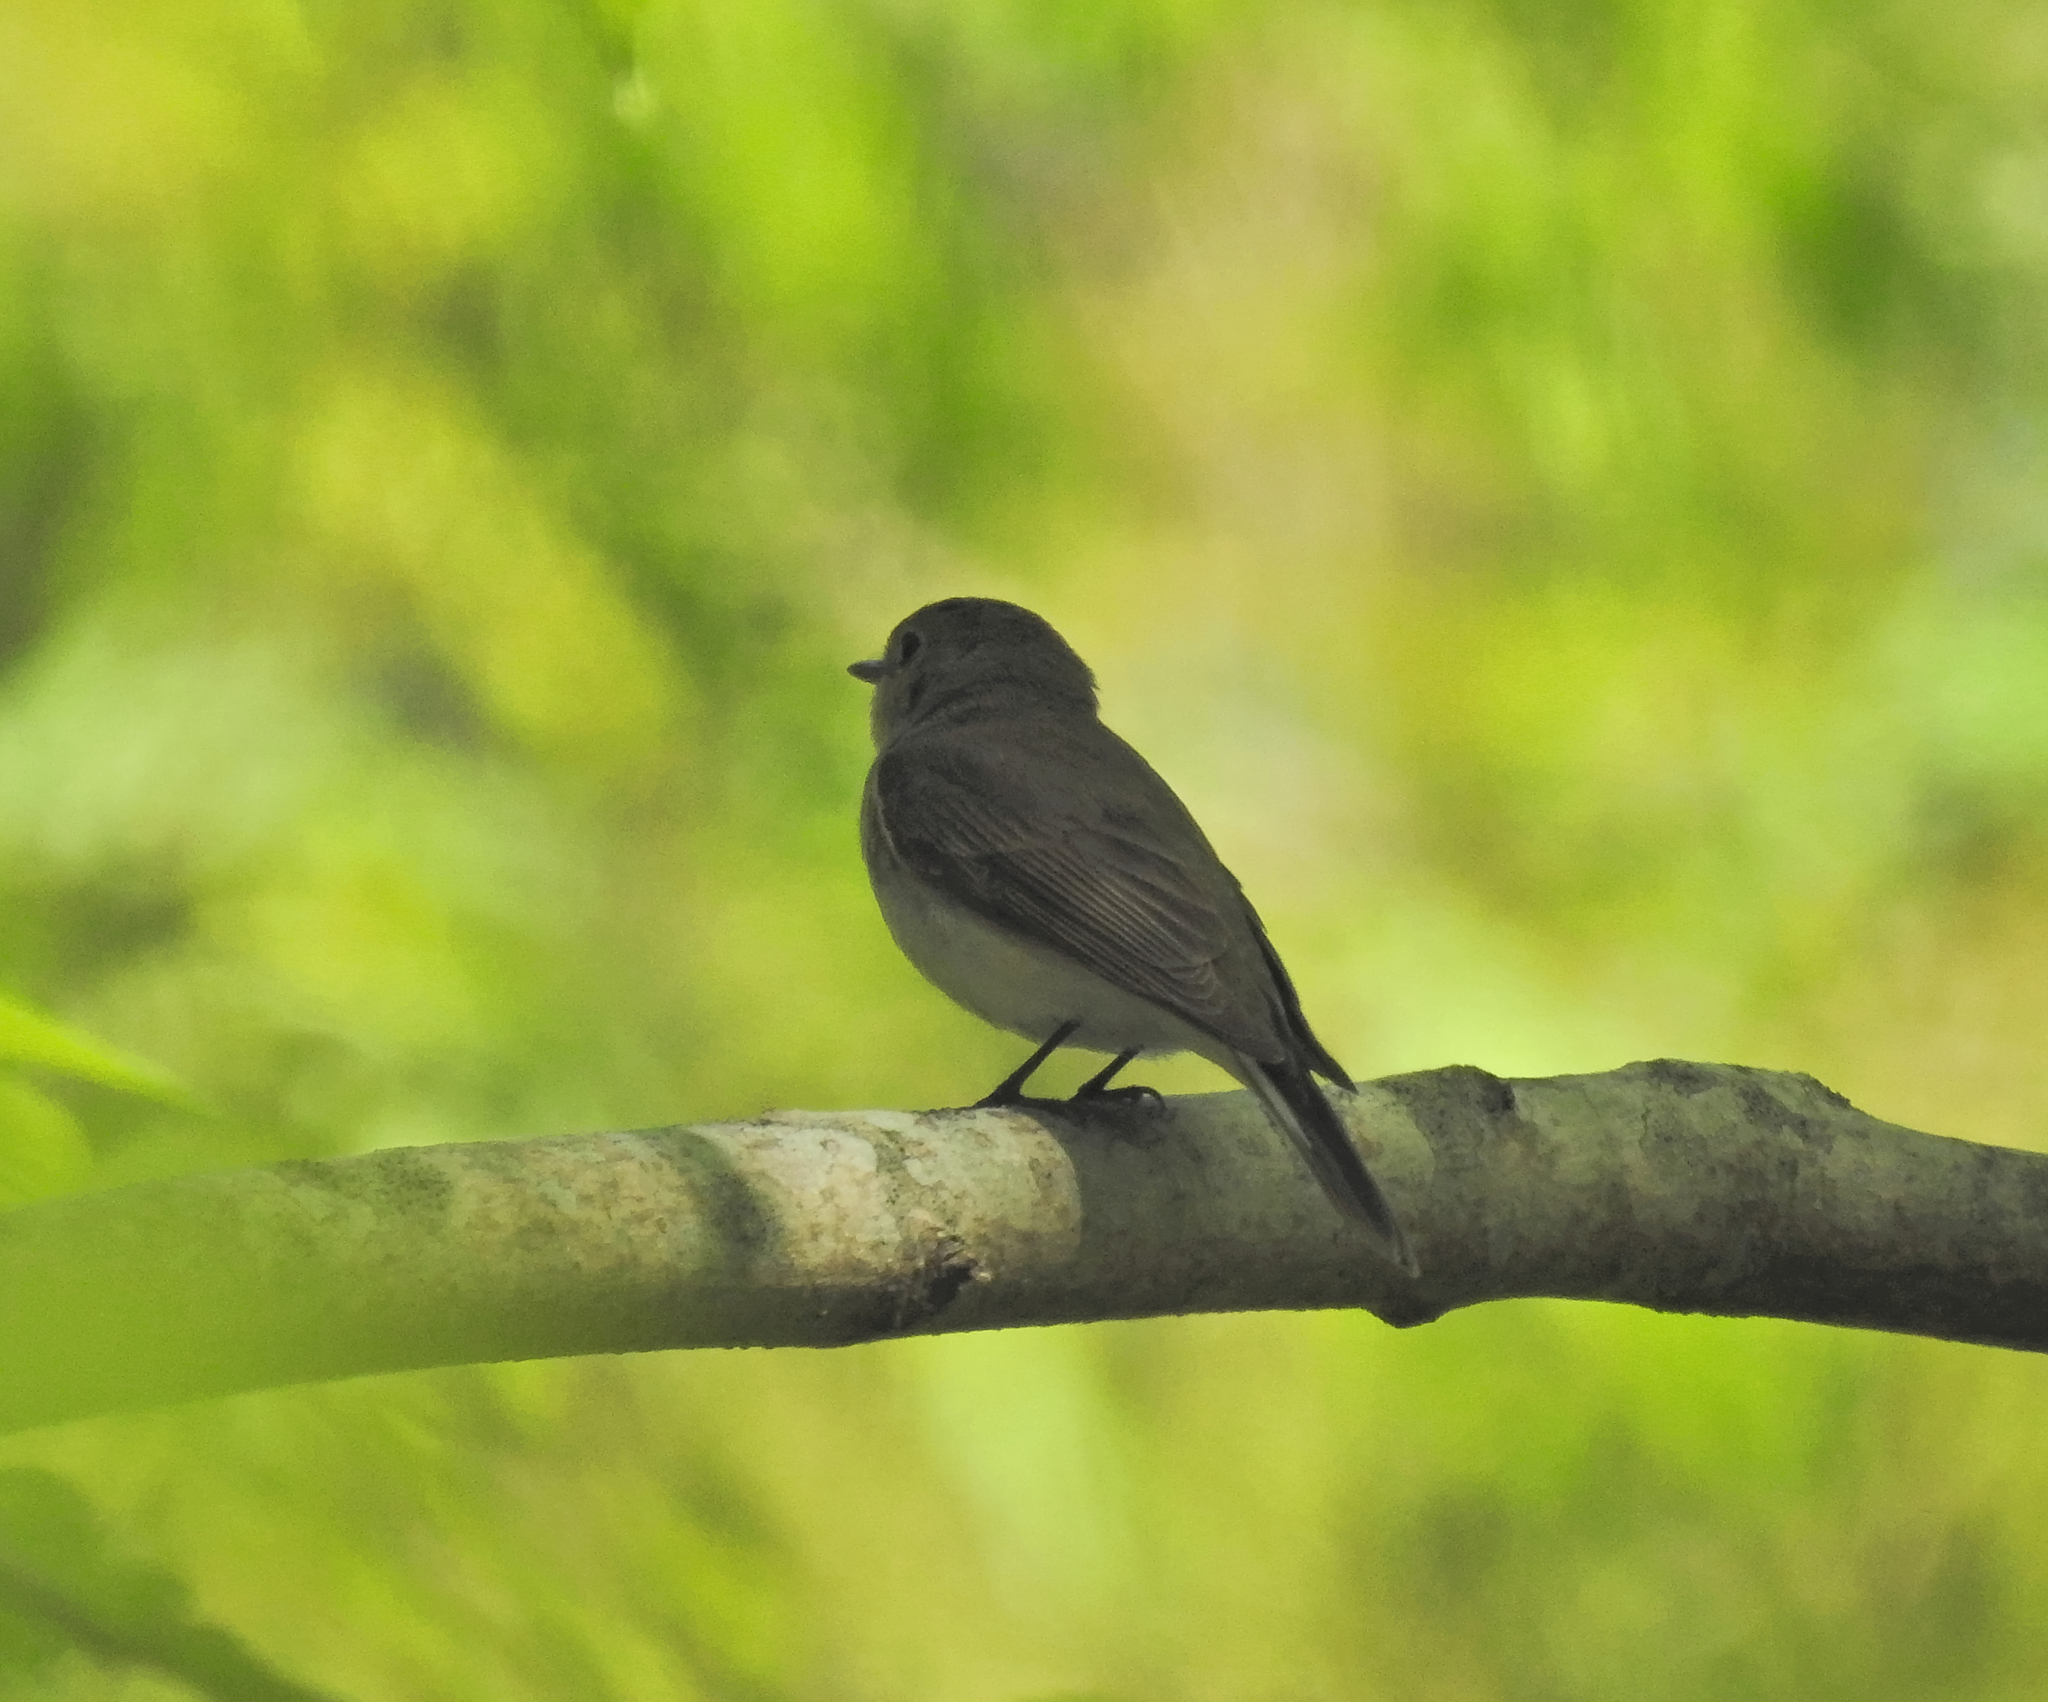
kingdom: Animalia
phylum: Chordata
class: Aves
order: Passeriformes
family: Muscicapidae
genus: Ficedula
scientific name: Ficedula parva
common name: Red-breasted flycatcher
